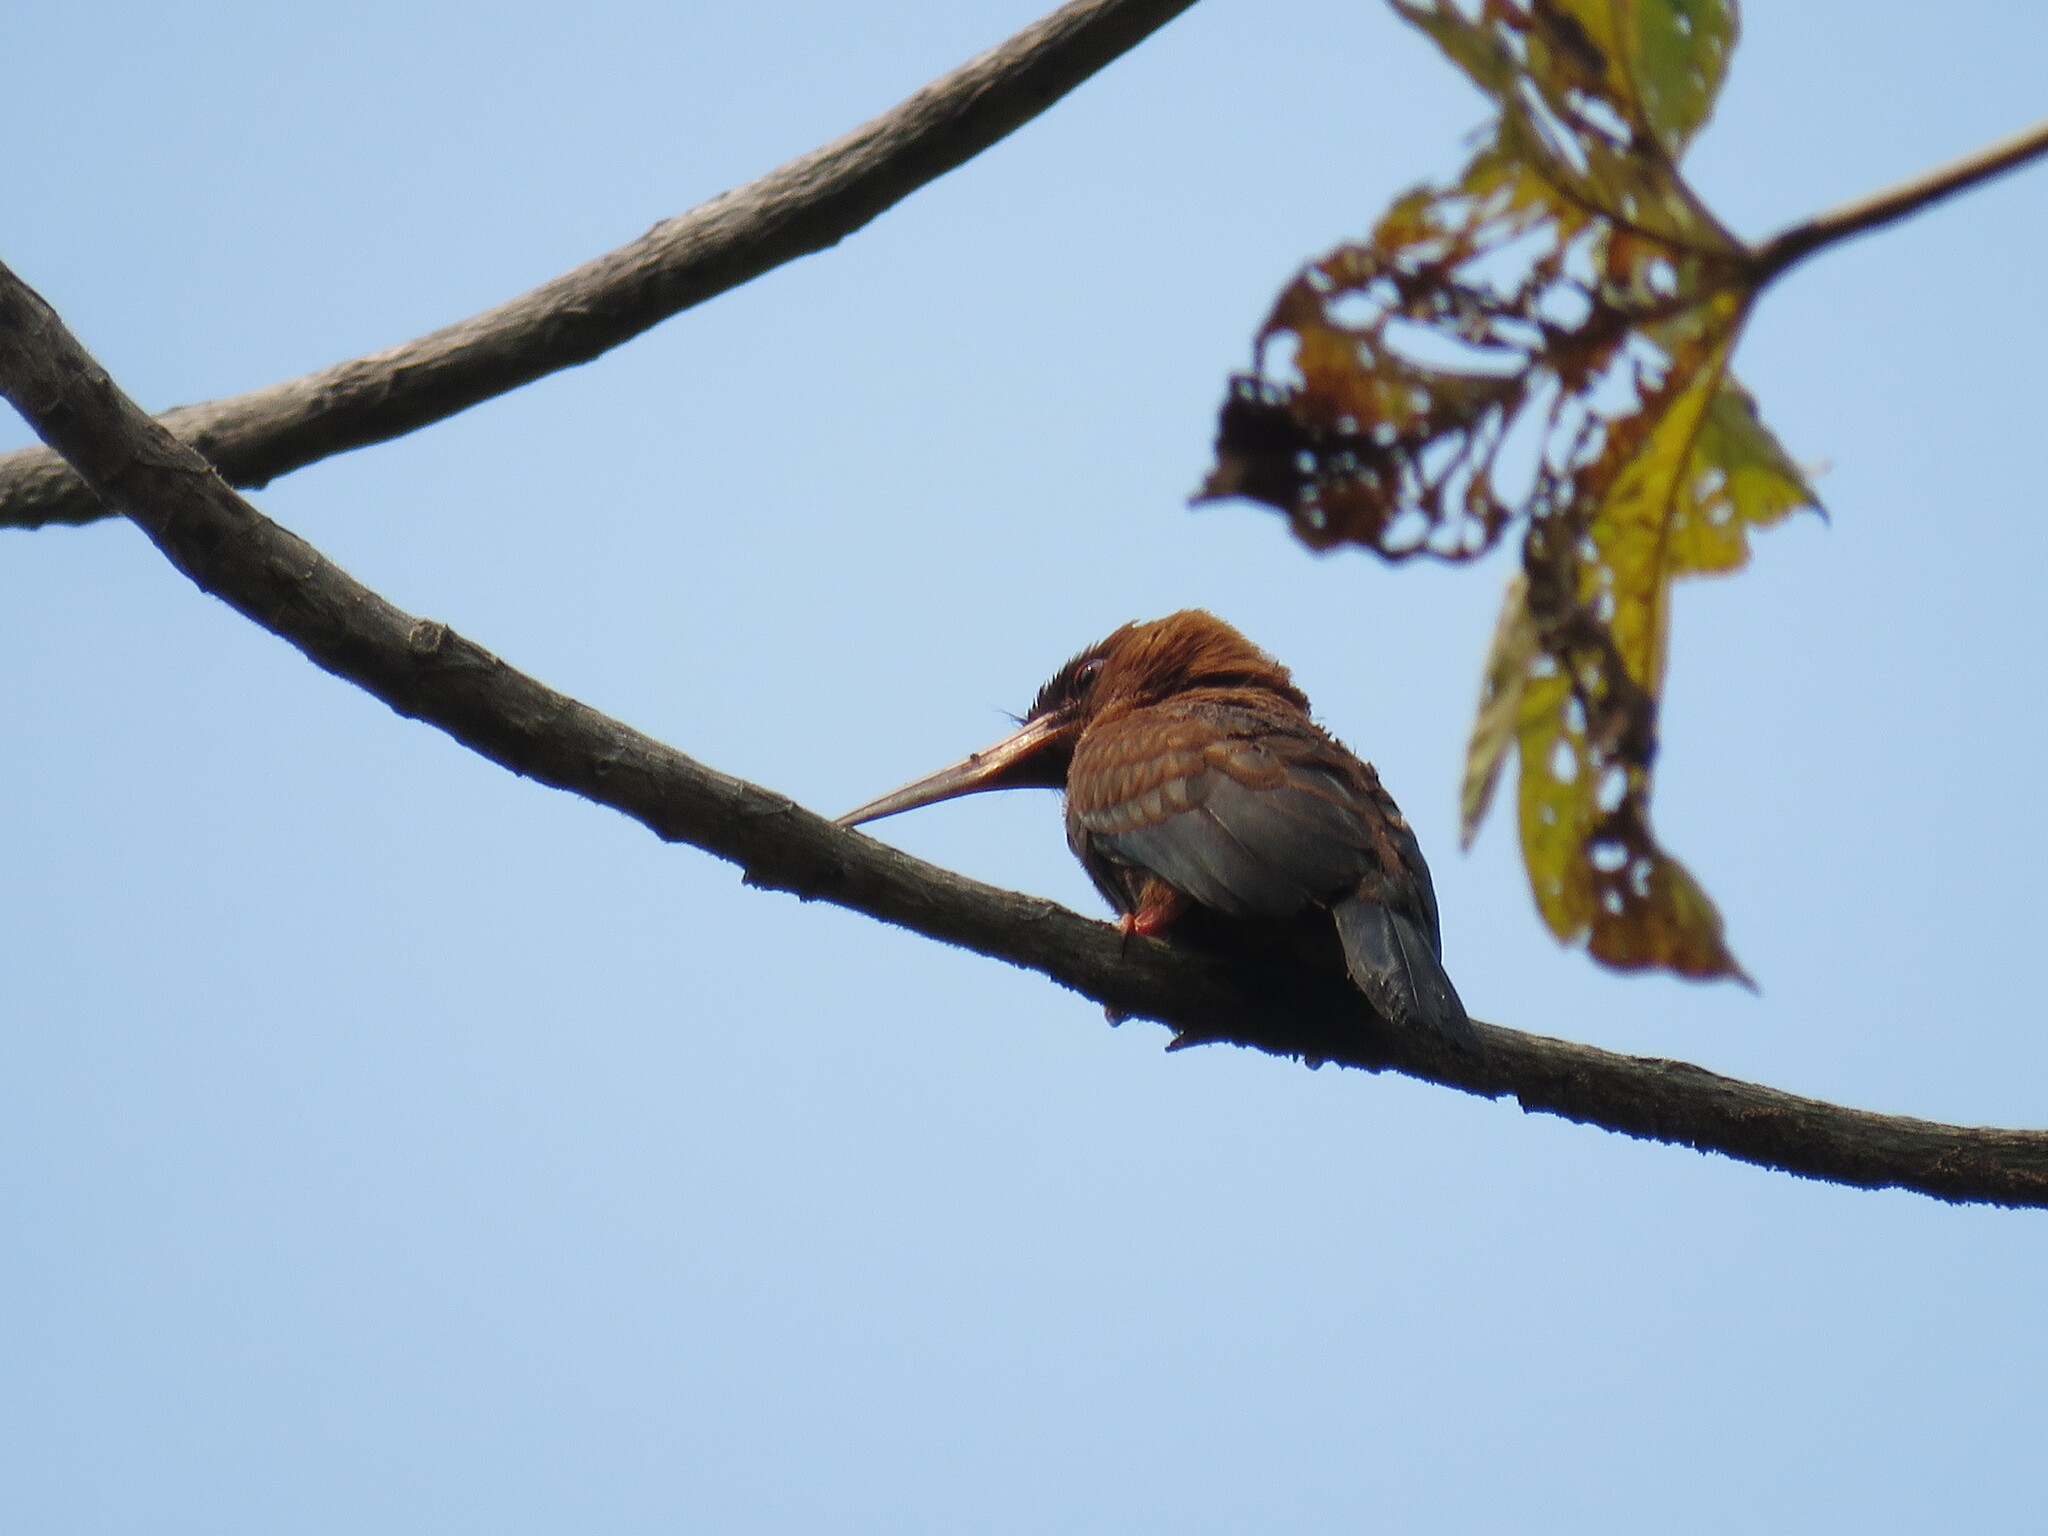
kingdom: Animalia
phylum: Chordata
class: Aves
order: Piciformes
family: Galbulidae
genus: Galbalcyrhynchus
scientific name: Galbalcyrhynchus purusianus
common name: Purus jacamar
